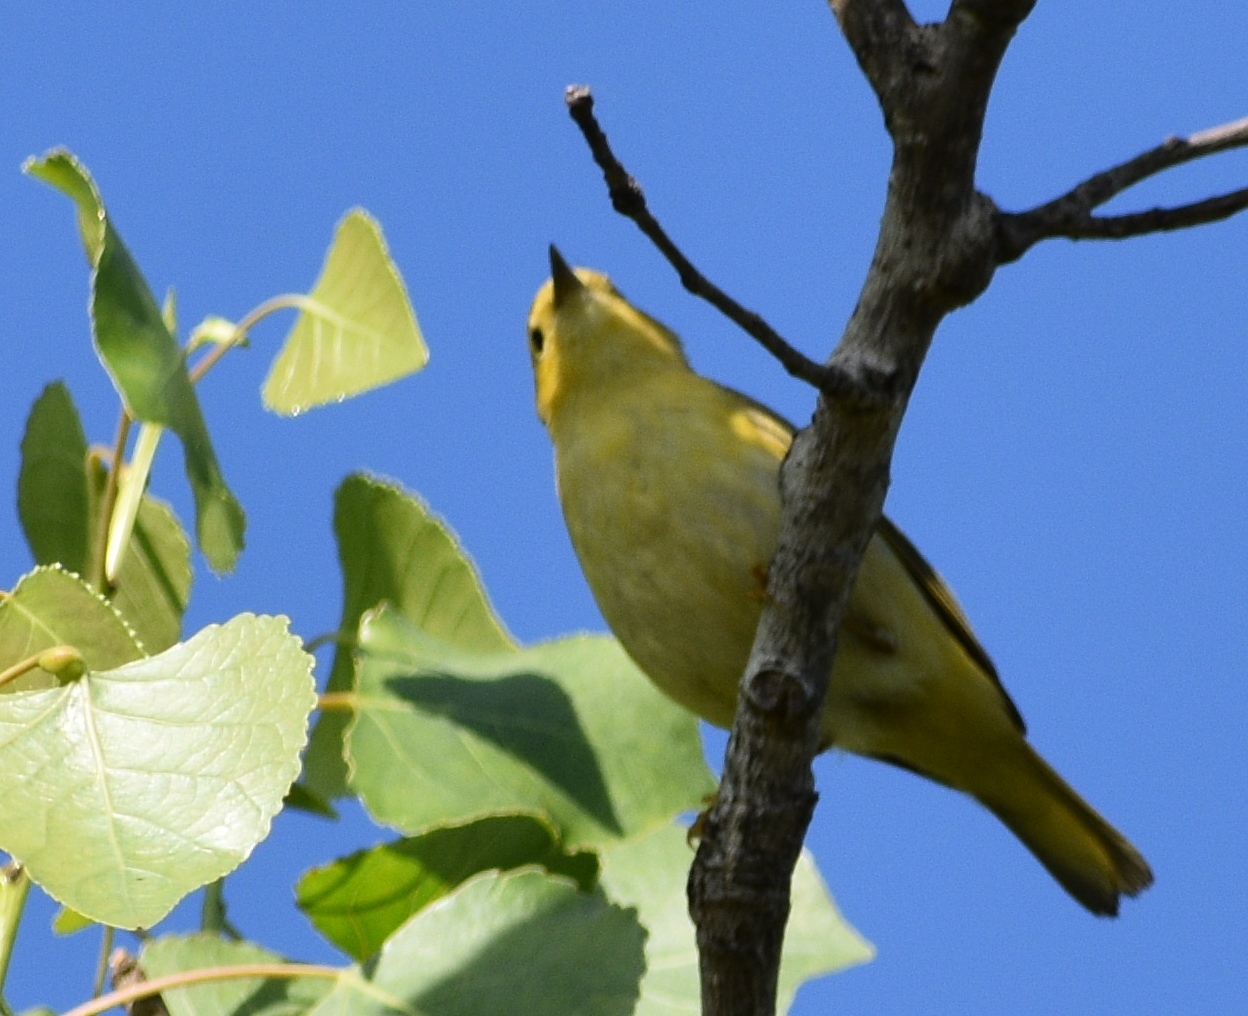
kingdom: Animalia
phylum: Chordata
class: Aves
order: Passeriformes
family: Parulidae
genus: Setophaga
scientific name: Setophaga petechia
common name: Yellow warbler
